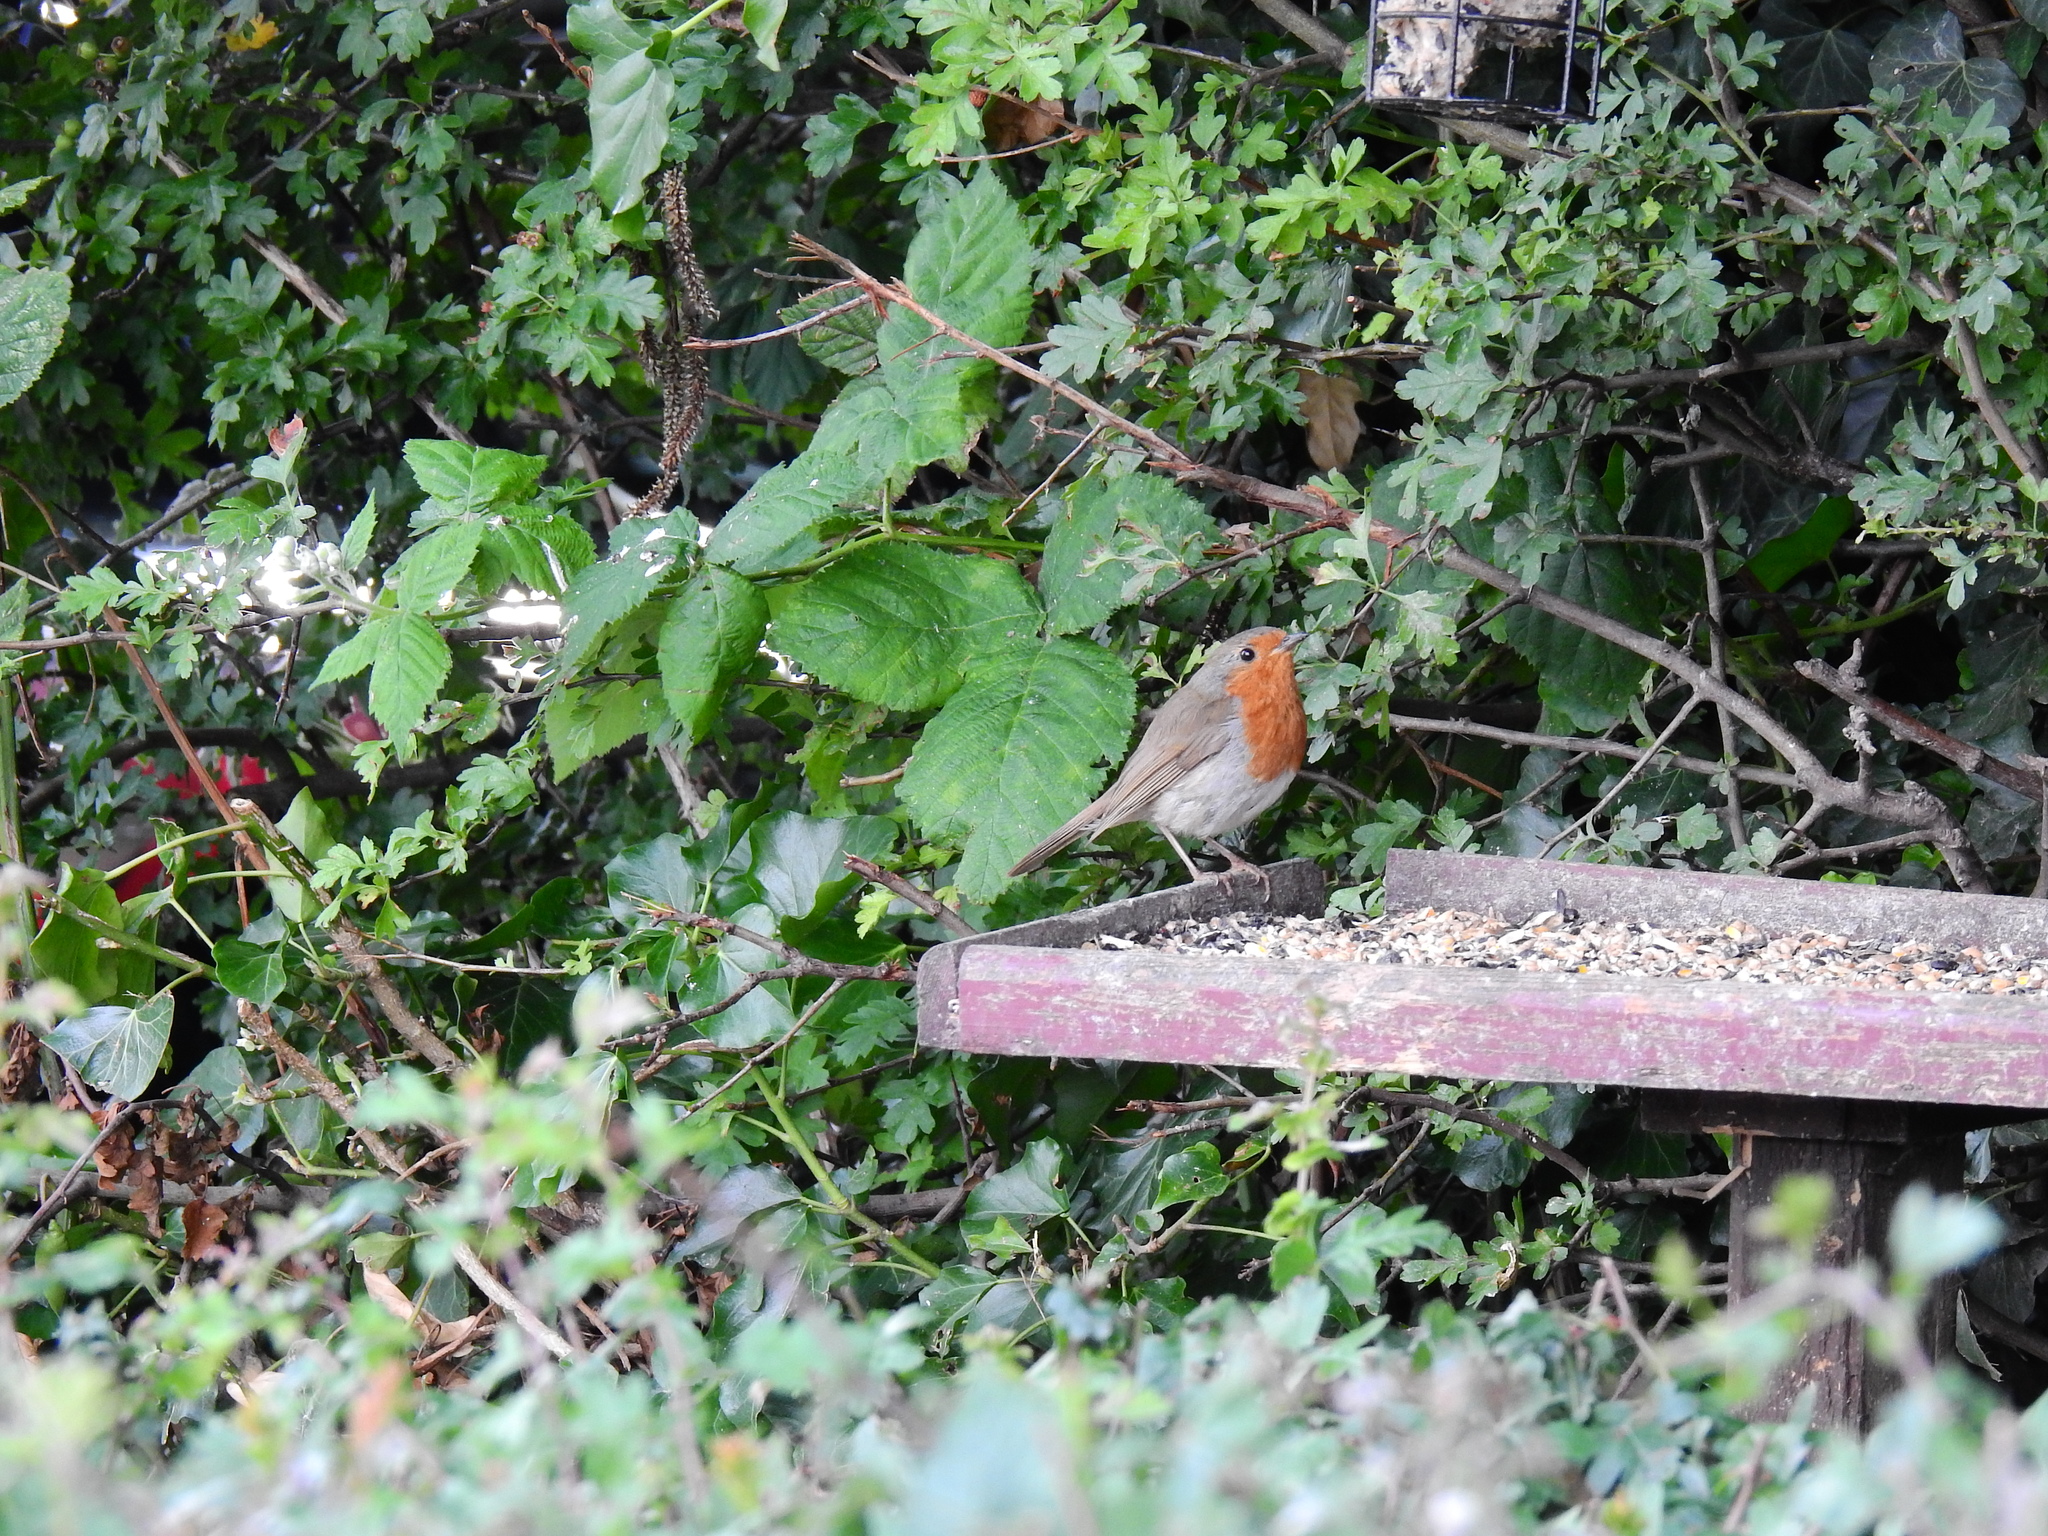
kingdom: Animalia
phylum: Chordata
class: Aves
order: Passeriformes
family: Muscicapidae
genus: Erithacus
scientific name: Erithacus rubecula
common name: European robin
